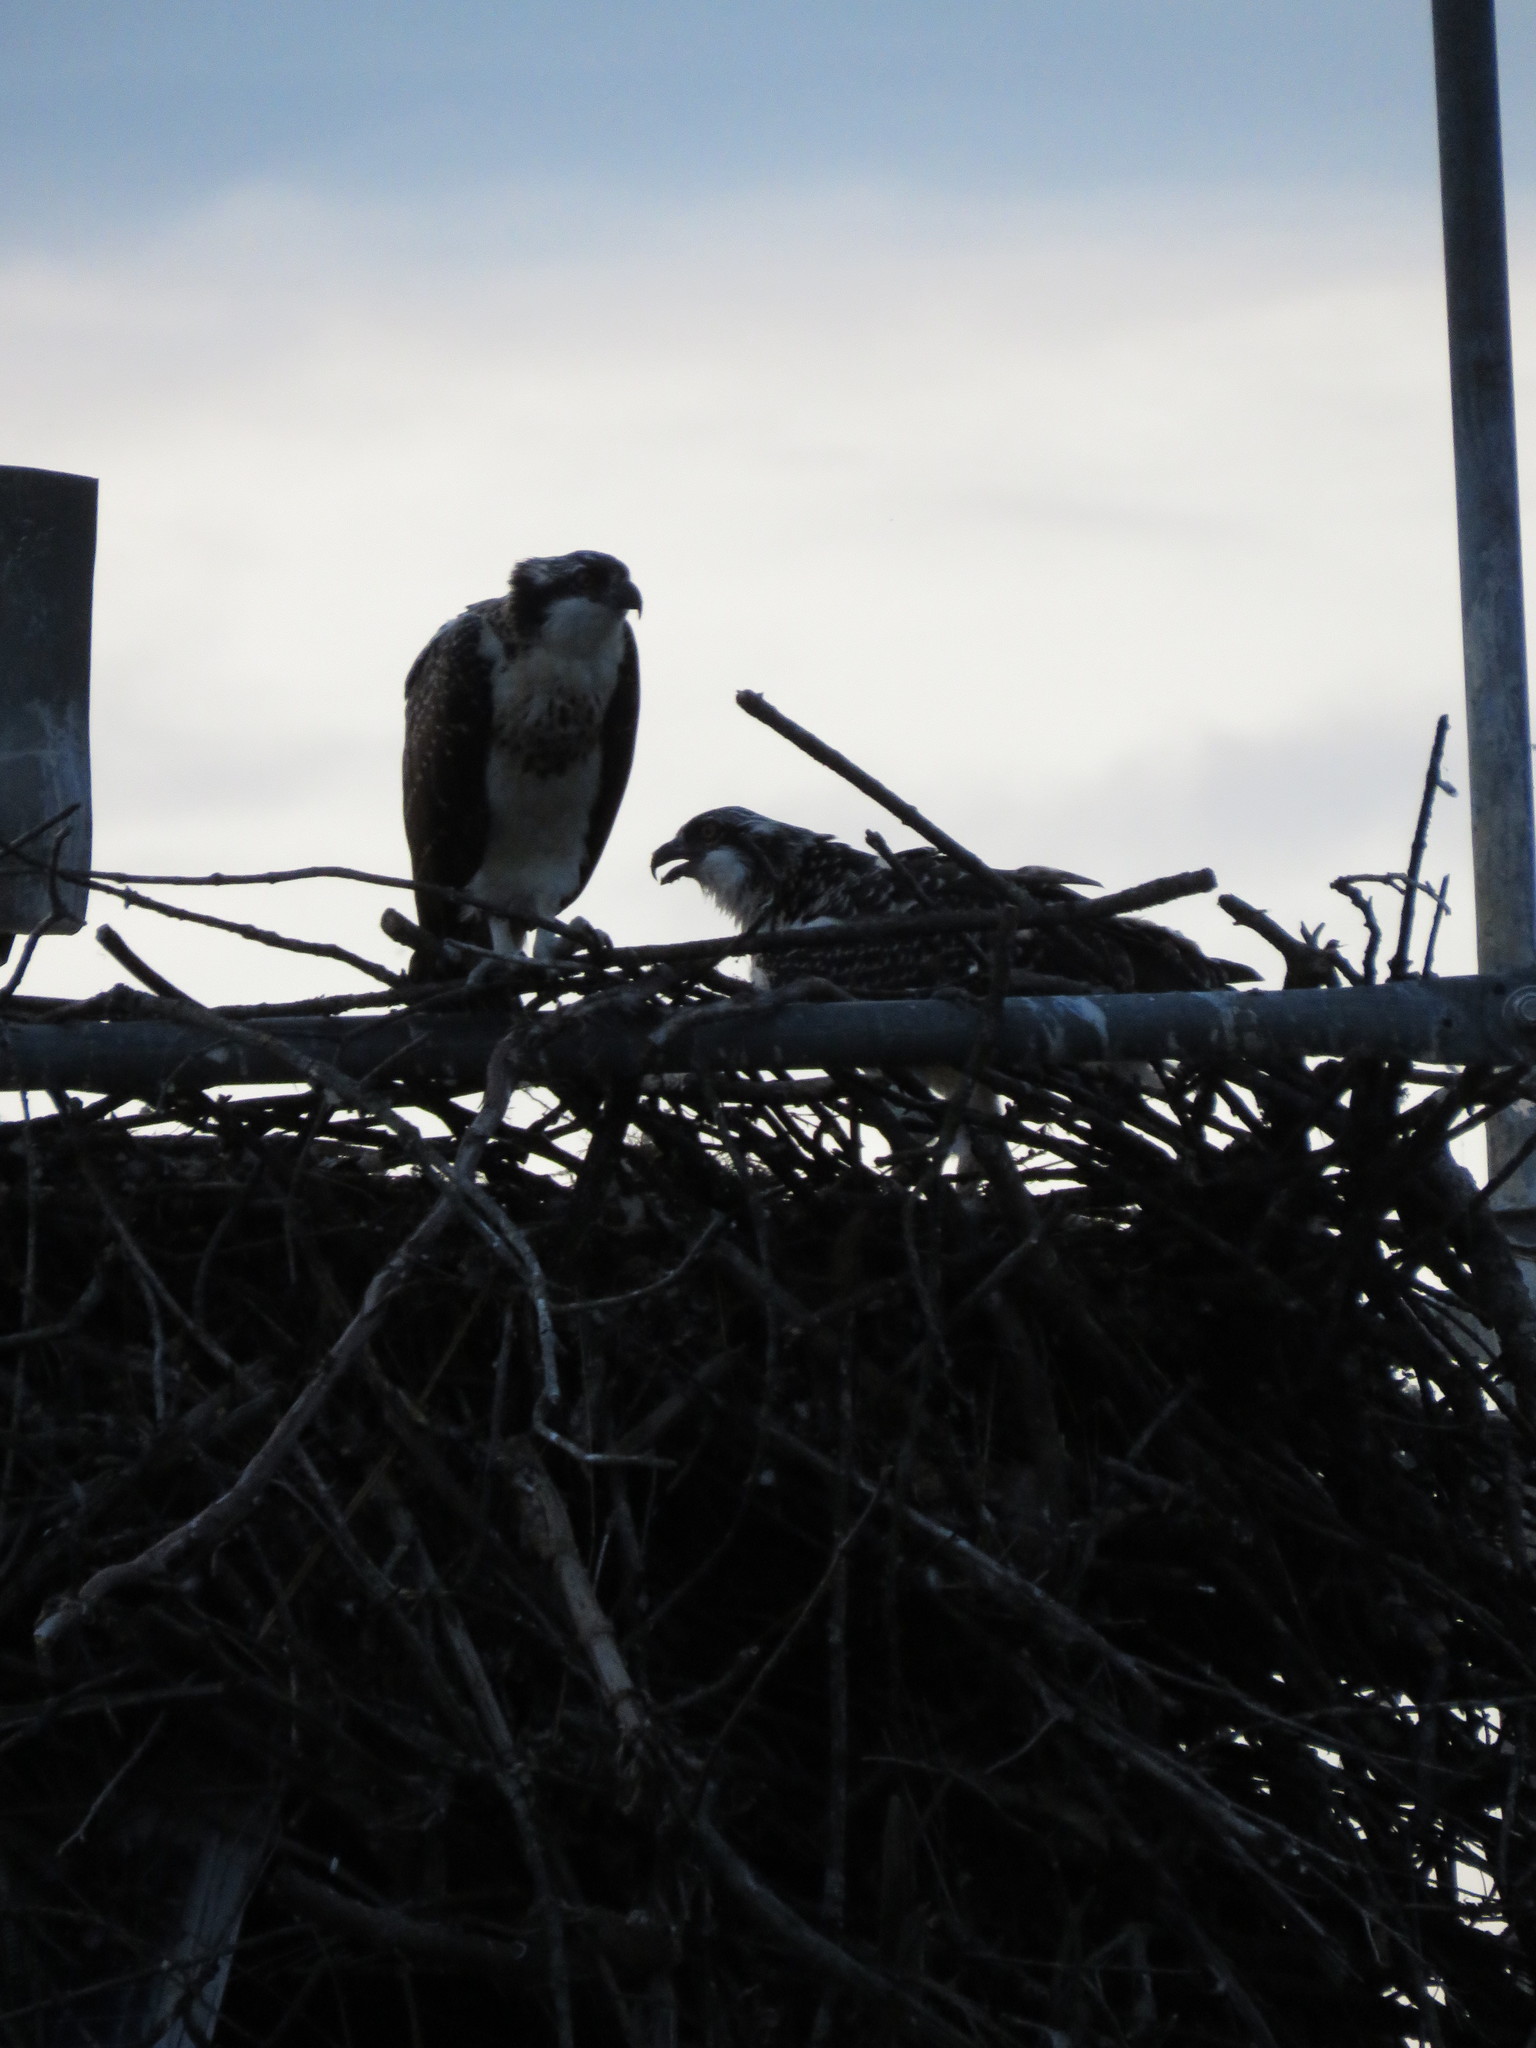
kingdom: Animalia
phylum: Chordata
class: Aves
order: Accipitriformes
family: Pandionidae
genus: Pandion
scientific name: Pandion haliaetus
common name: Osprey
